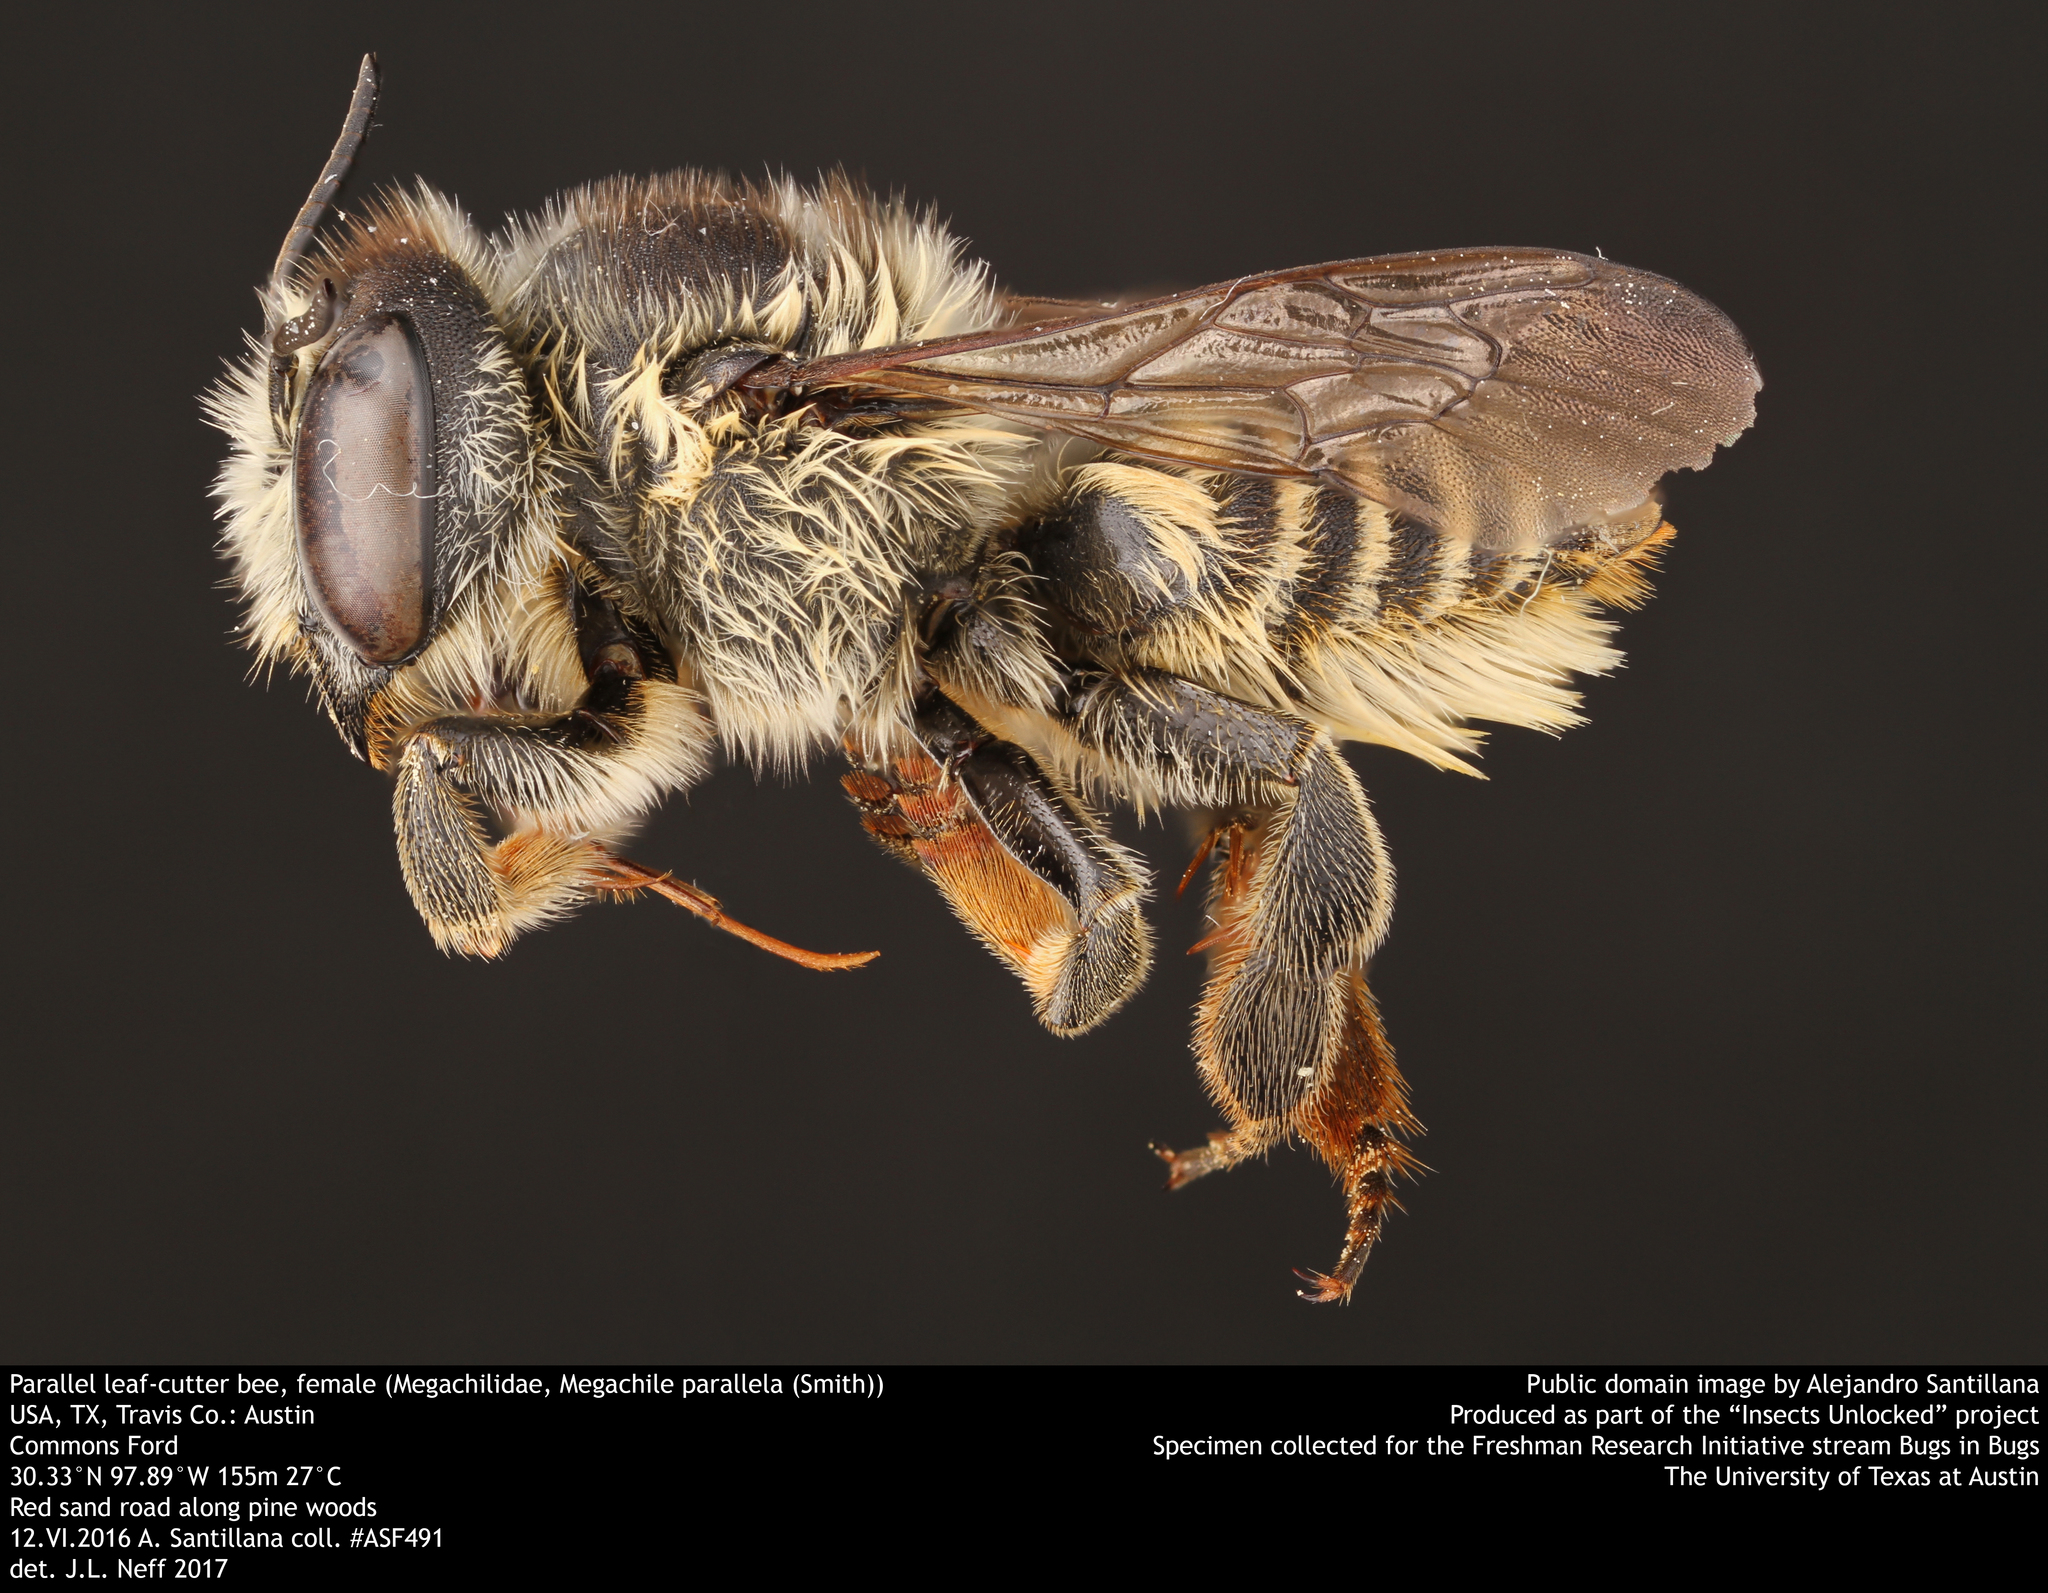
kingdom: Animalia
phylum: Arthropoda
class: Insecta
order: Hymenoptera
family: Megachilidae
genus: Megachile
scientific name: Megachile parallela
